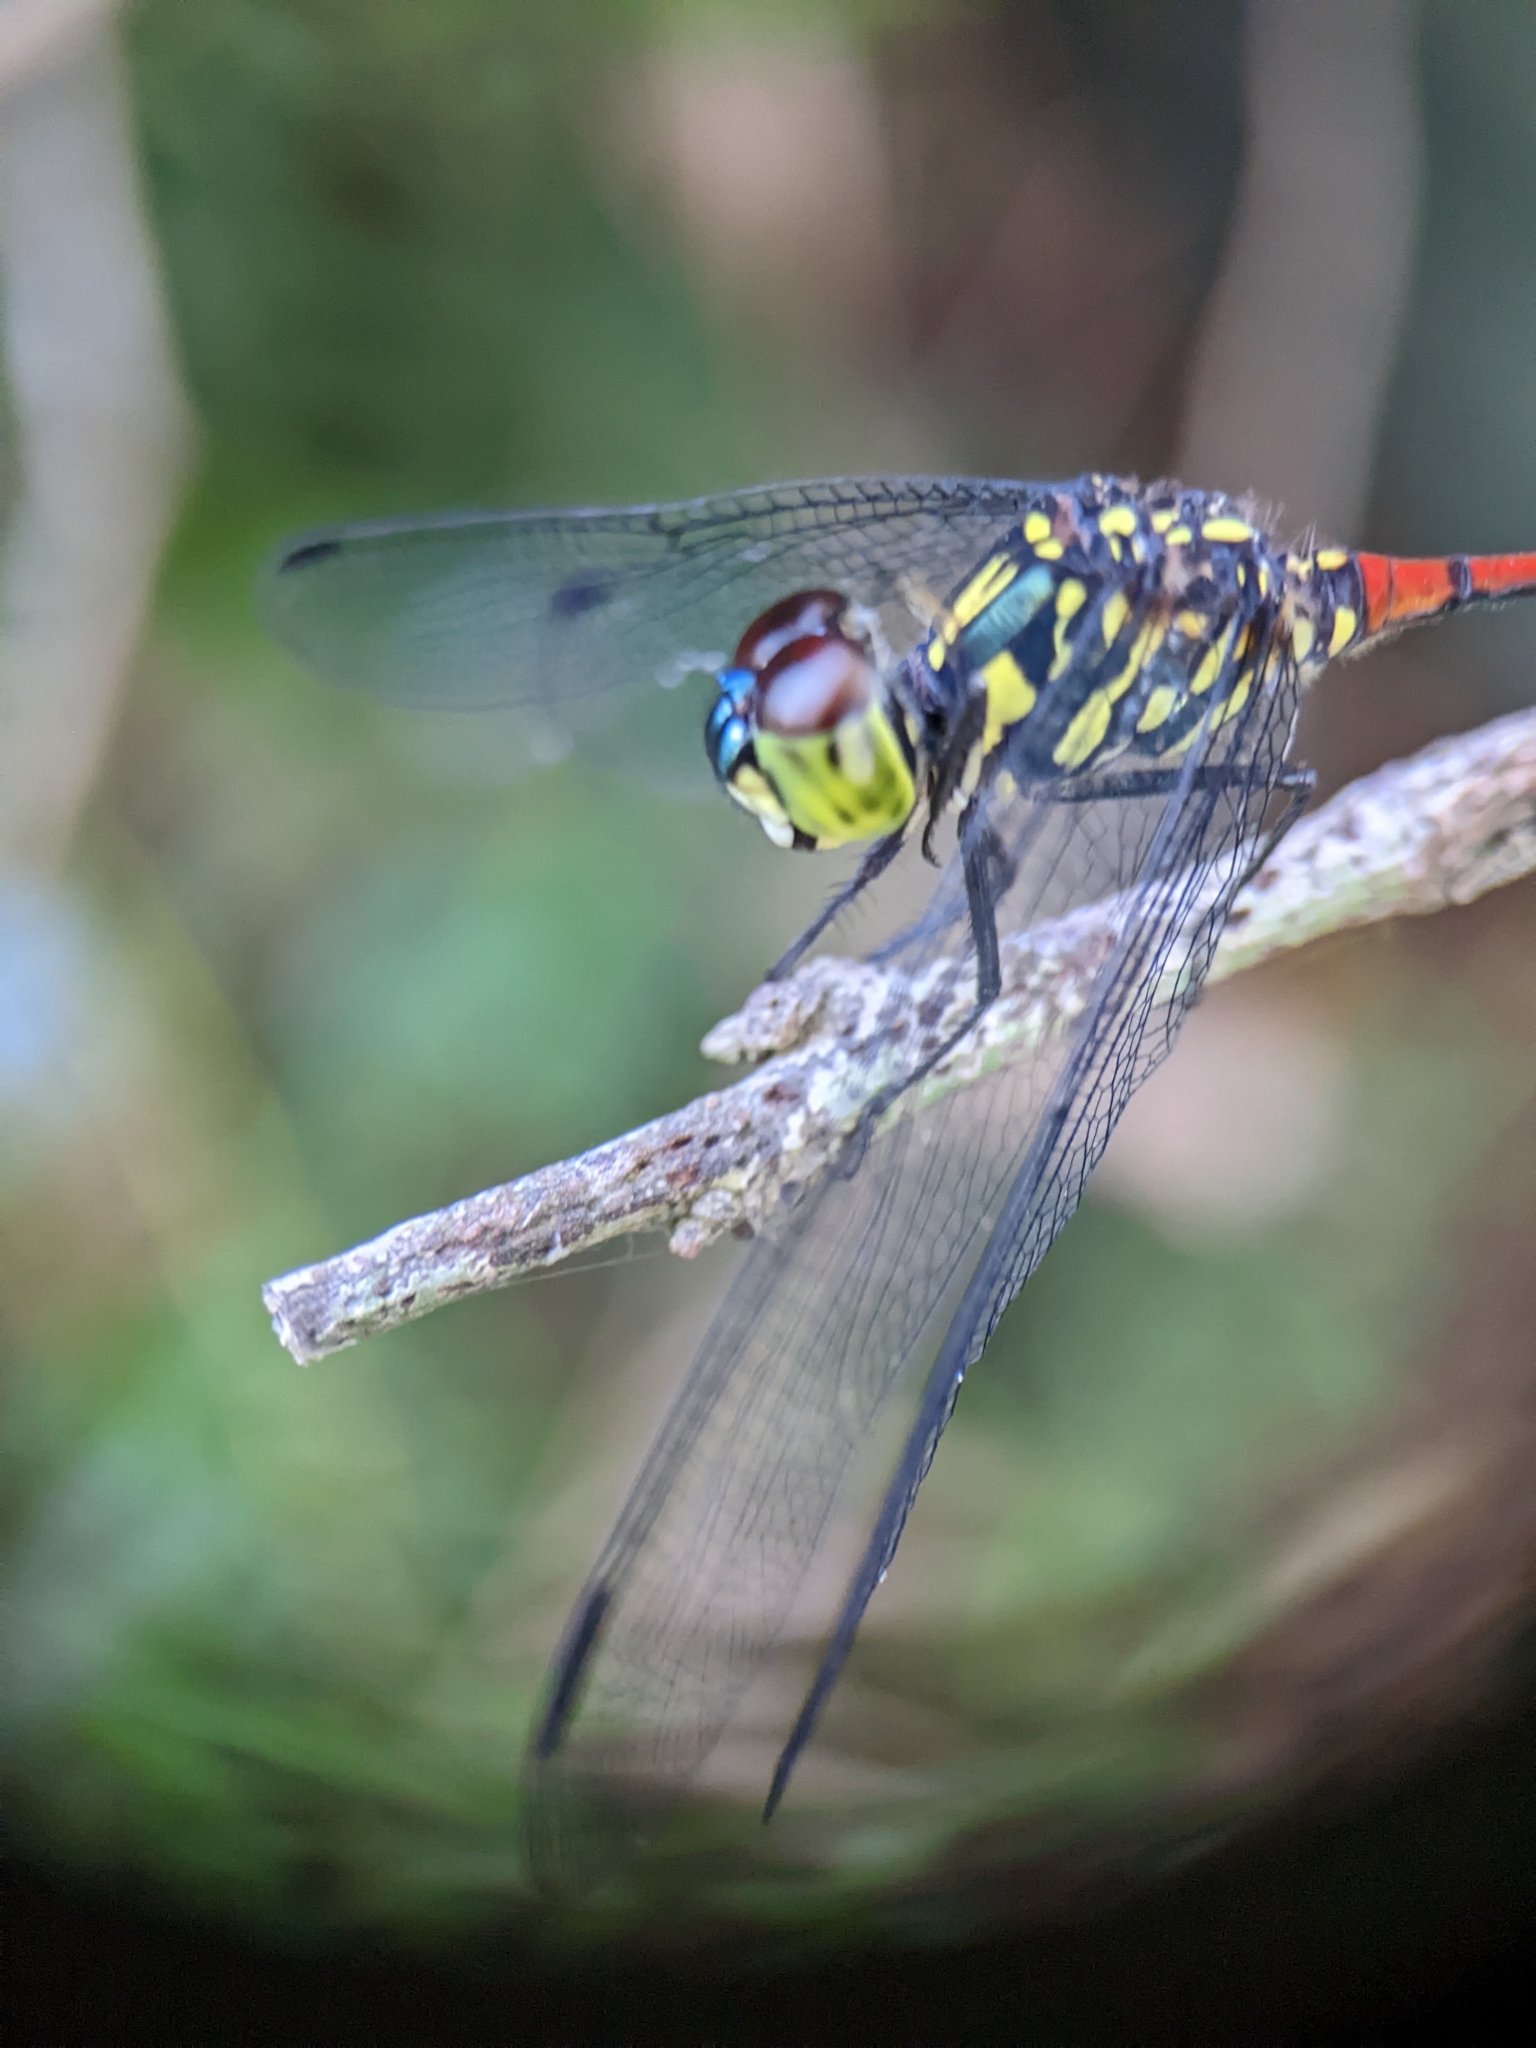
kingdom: Animalia
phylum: Arthropoda
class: Insecta
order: Odonata
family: Libellulidae
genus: Agrionoptera
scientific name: Agrionoptera insignis
